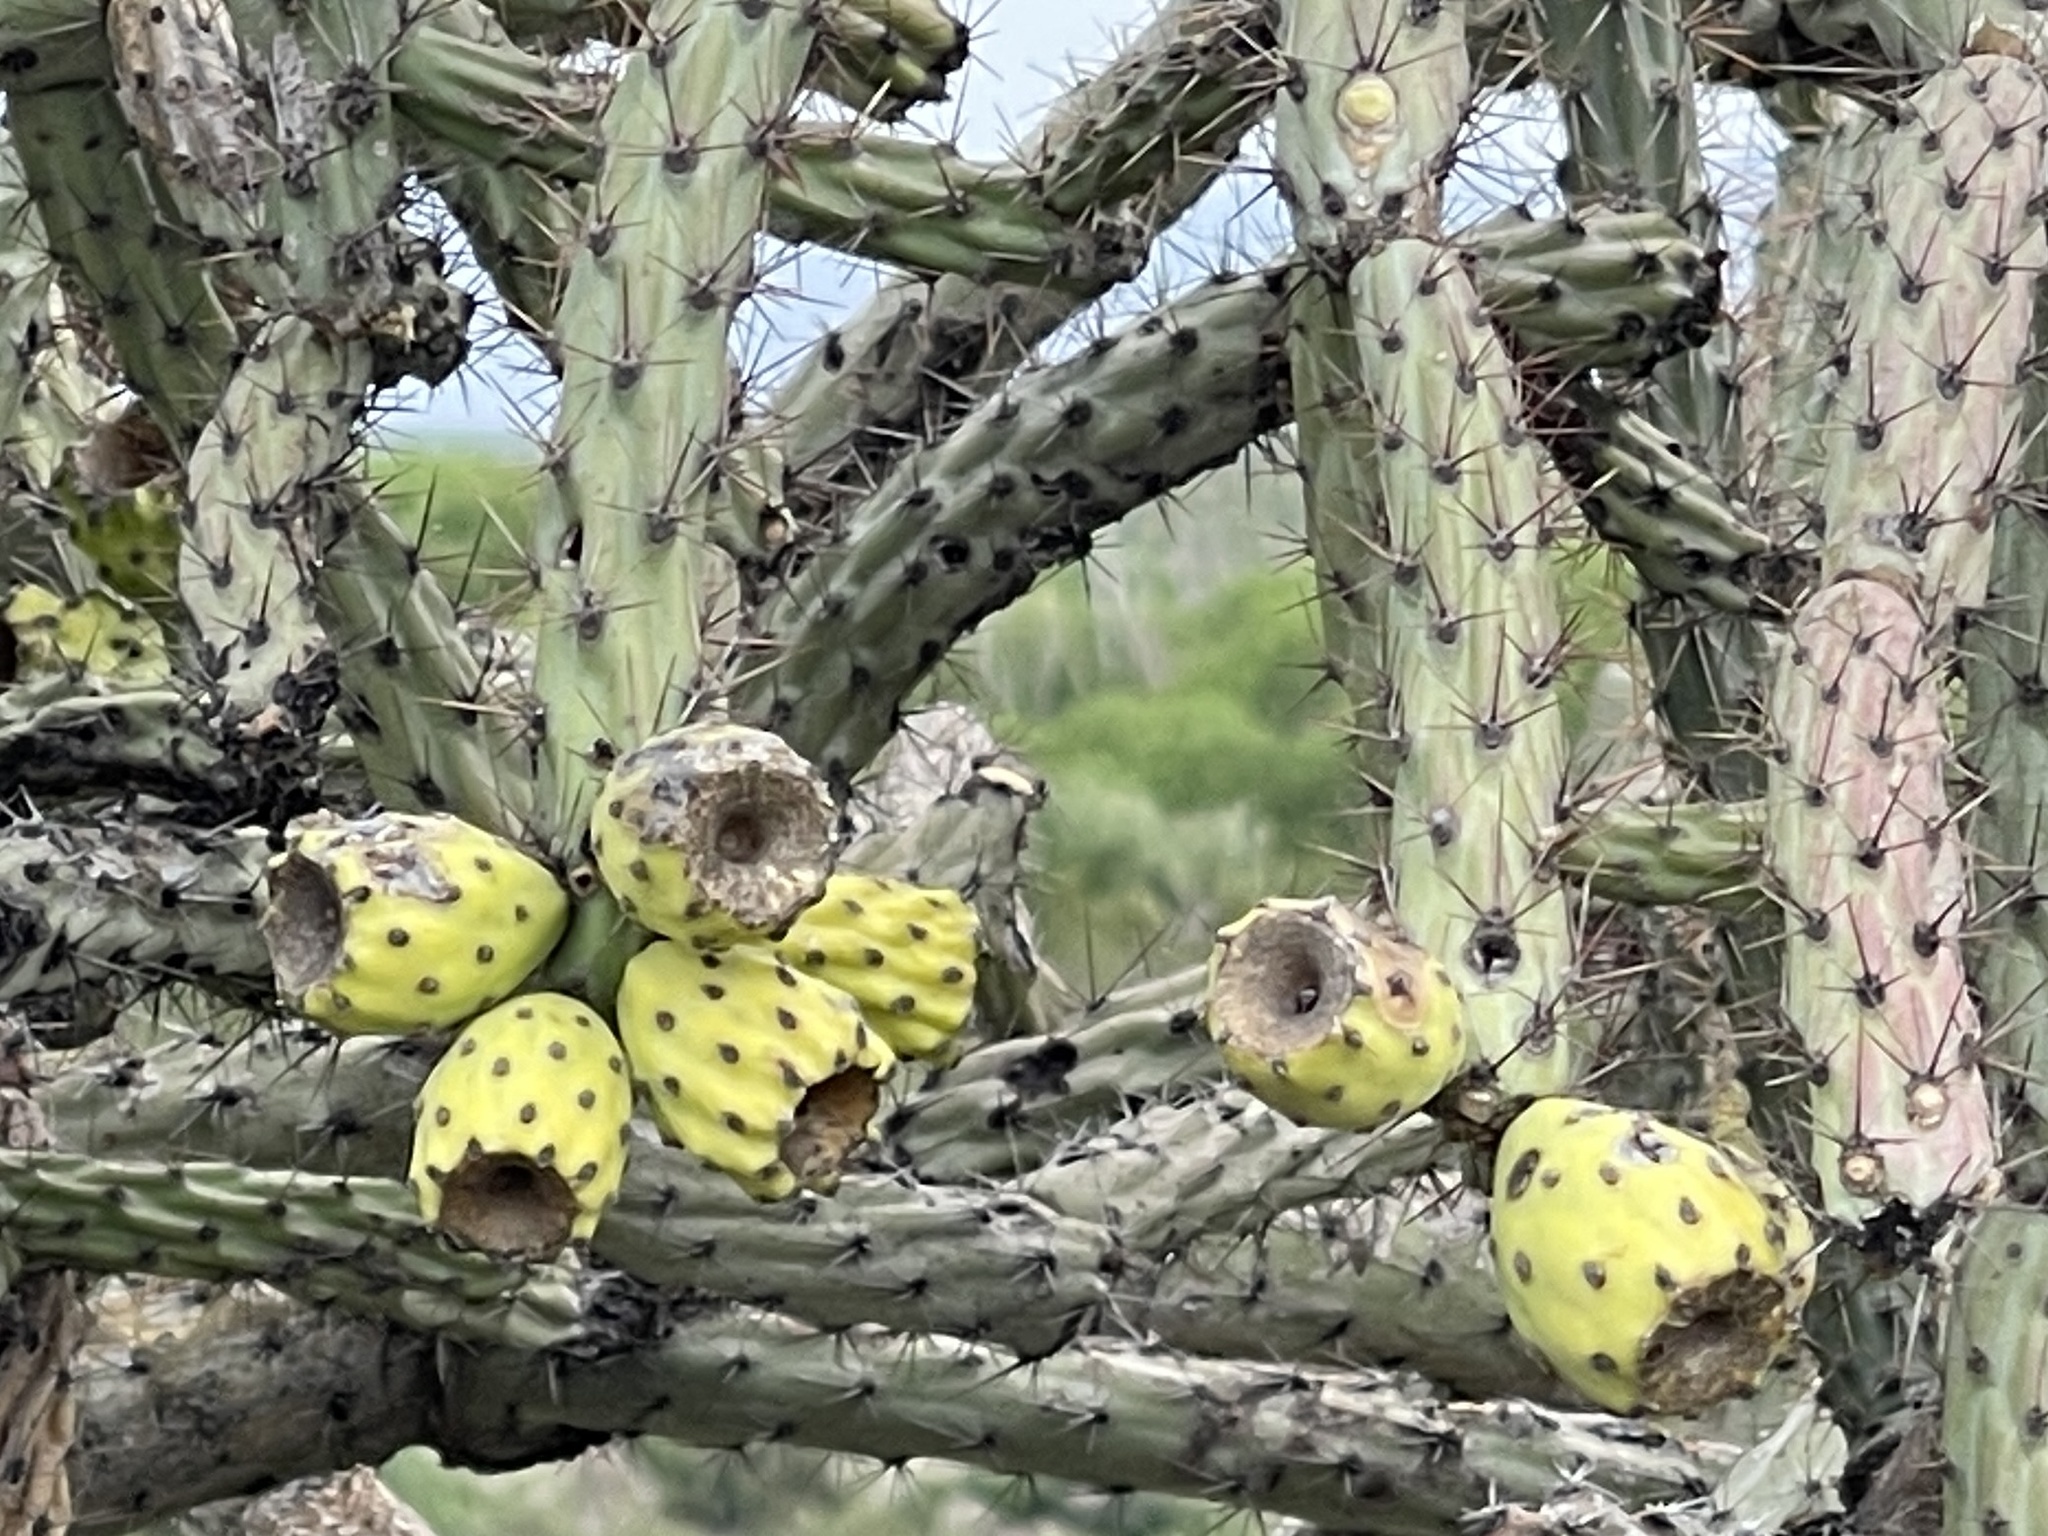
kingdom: Plantae
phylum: Tracheophyta
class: Magnoliopsida
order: Caryophyllales
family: Cactaceae
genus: Cylindropuntia
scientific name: Cylindropuntia thurberi
